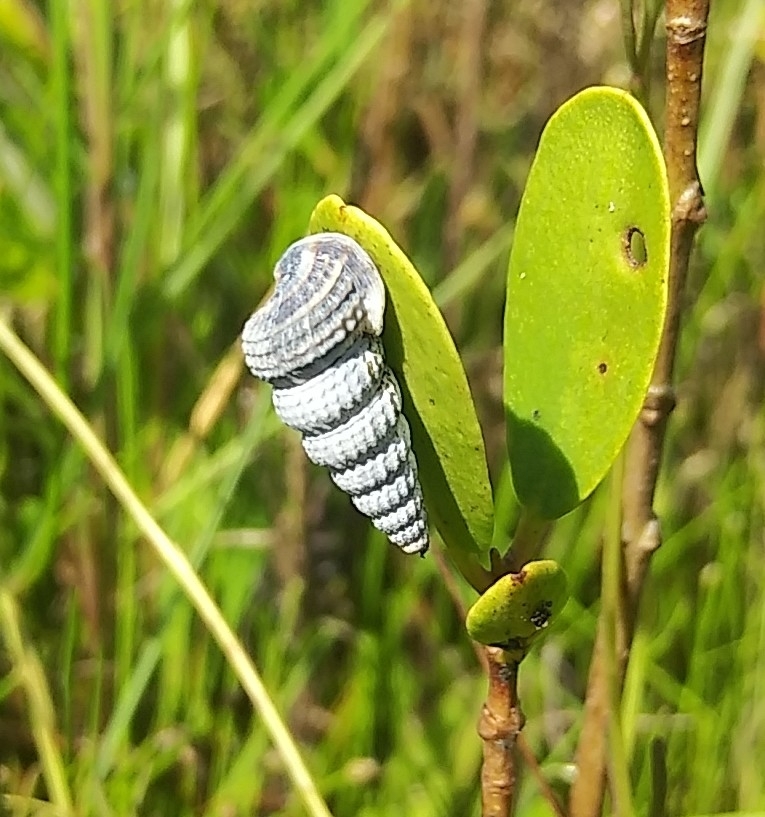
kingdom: Animalia
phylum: Mollusca
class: Gastropoda
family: Potamididae
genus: Cerithideopsis
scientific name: Cerithideopsis scalariformis
